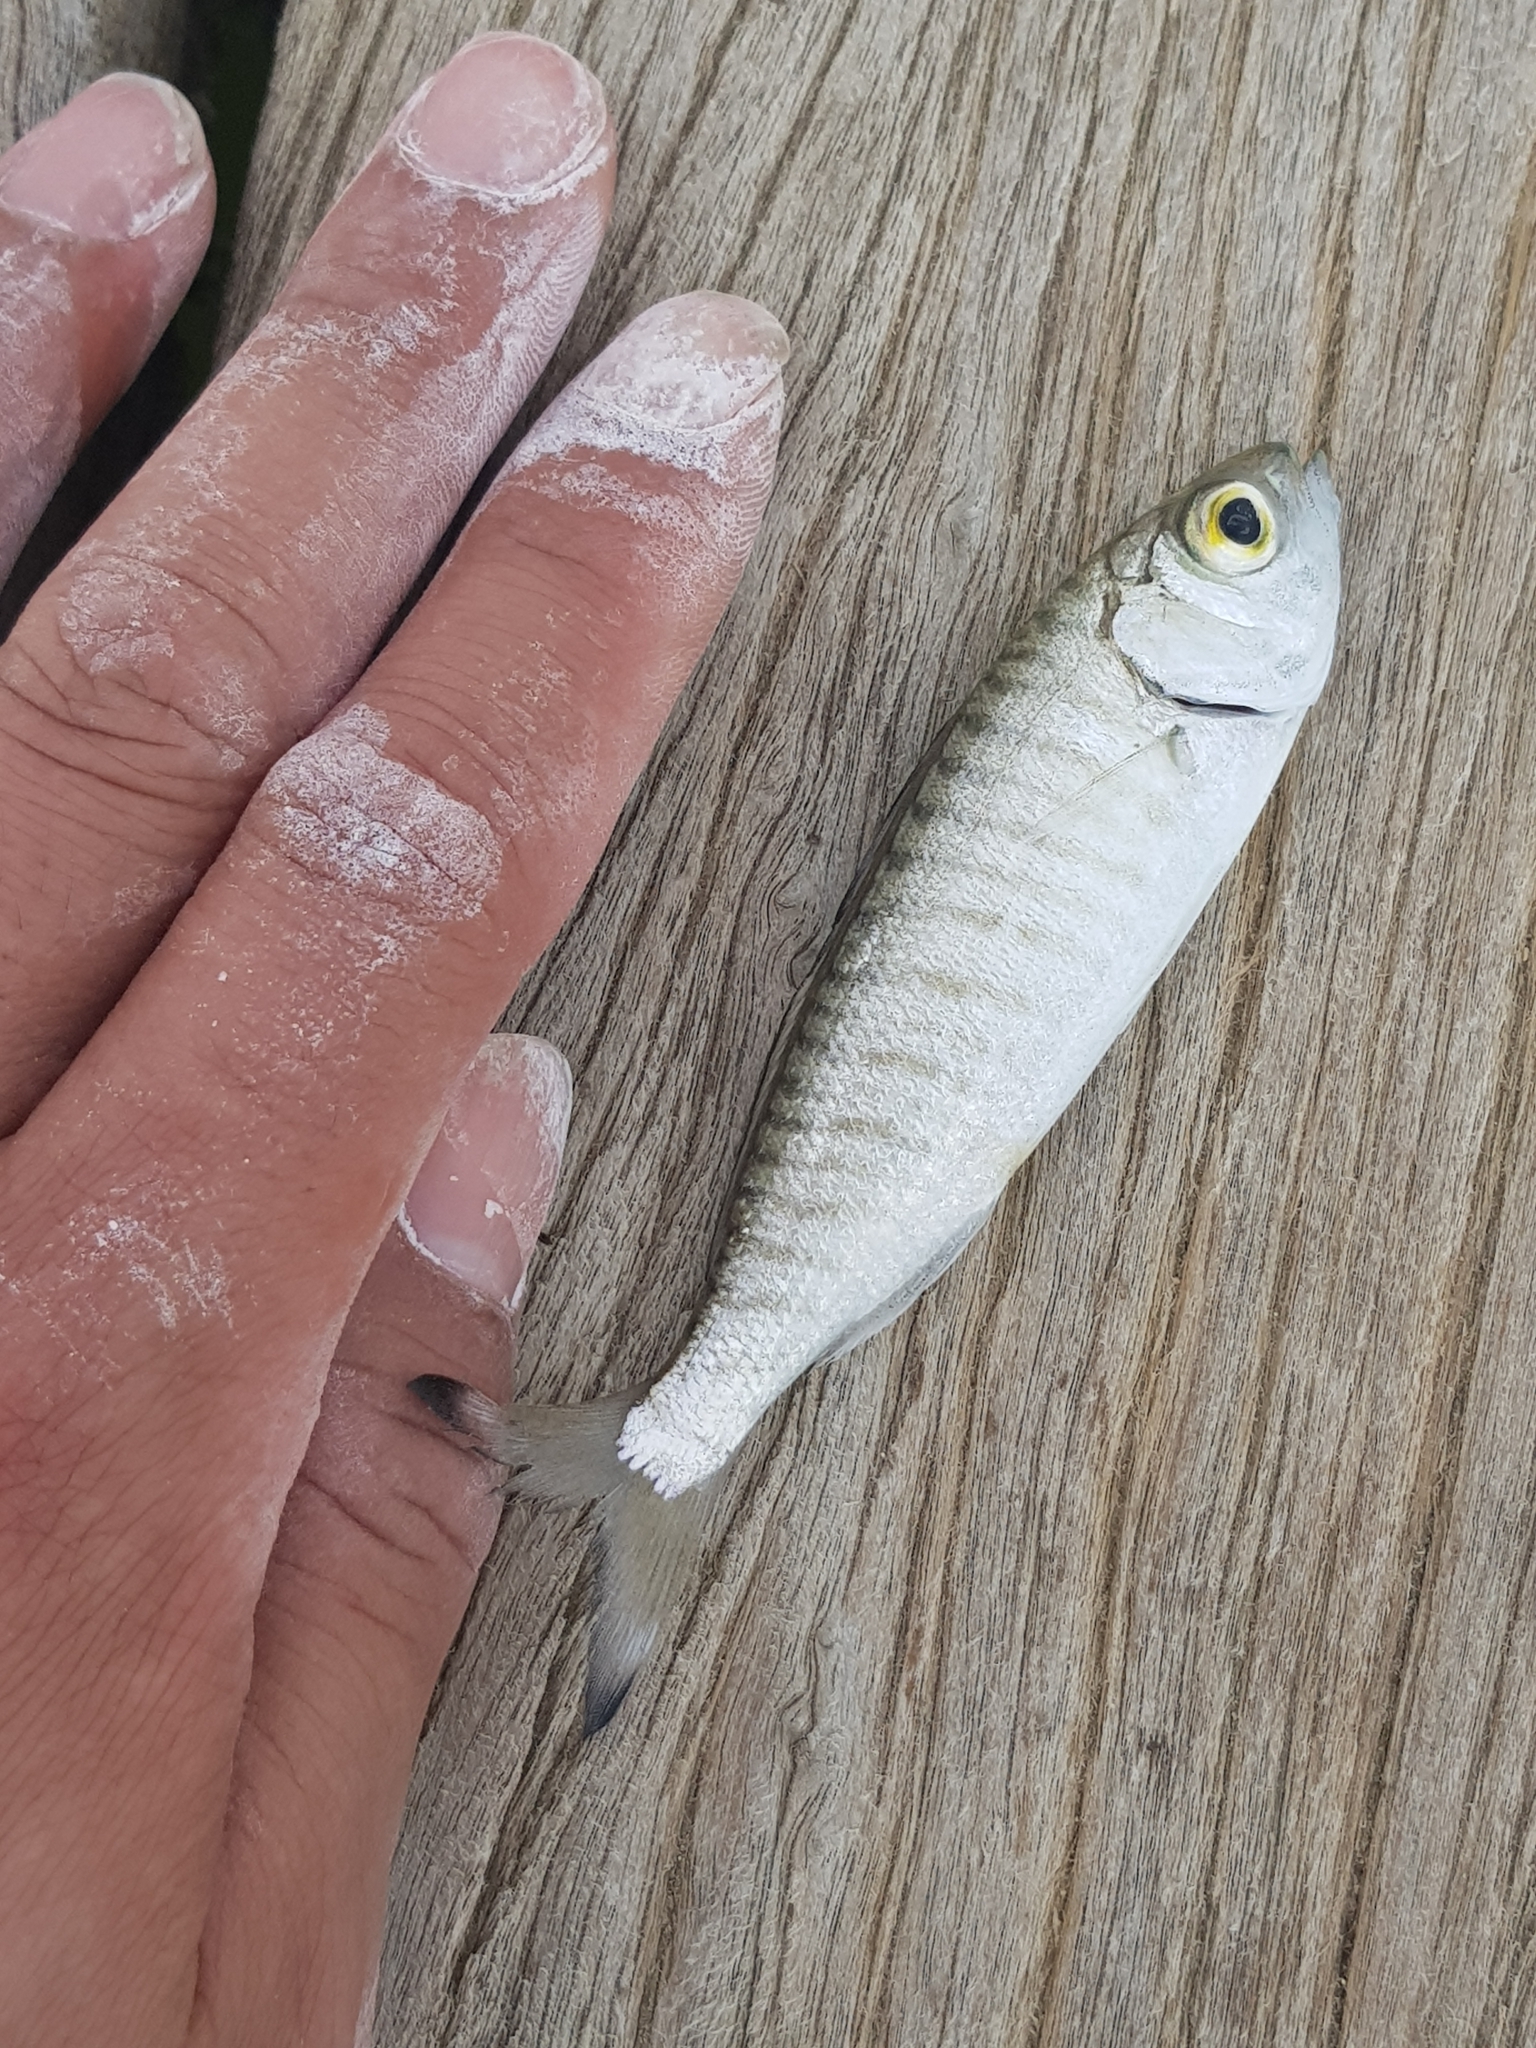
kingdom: Animalia
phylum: Chordata
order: Perciformes
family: Arripidae
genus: Arripis
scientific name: Arripis georgianus
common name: Australian herring
